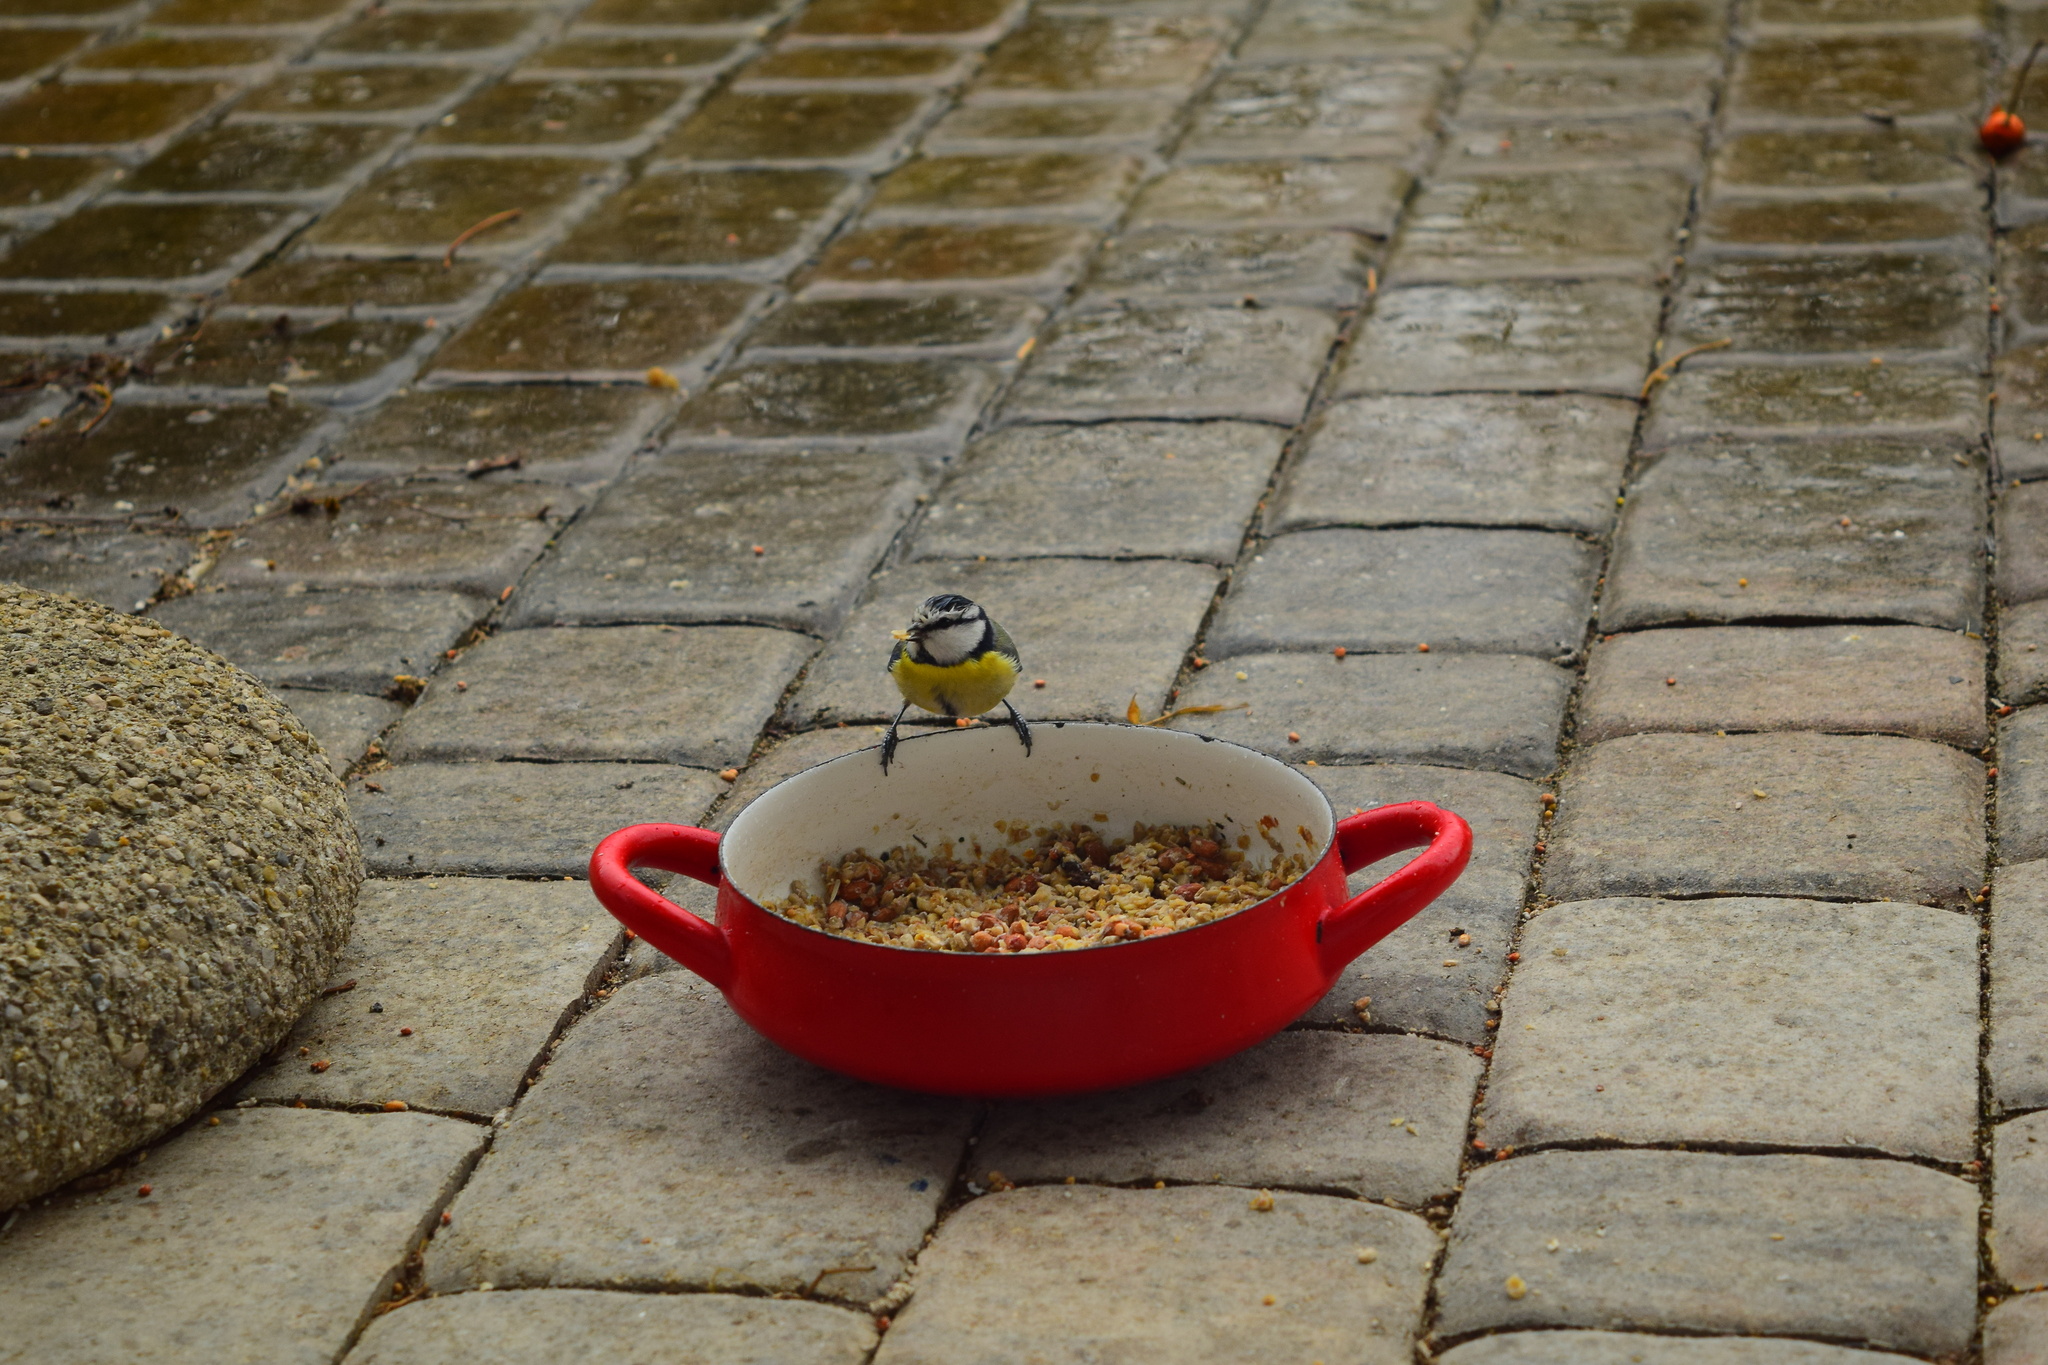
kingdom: Animalia
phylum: Chordata
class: Aves
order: Passeriformes
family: Paridae
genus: Cyanistes
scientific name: Cyanistes caeruleus
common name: Eurasian blue tit
